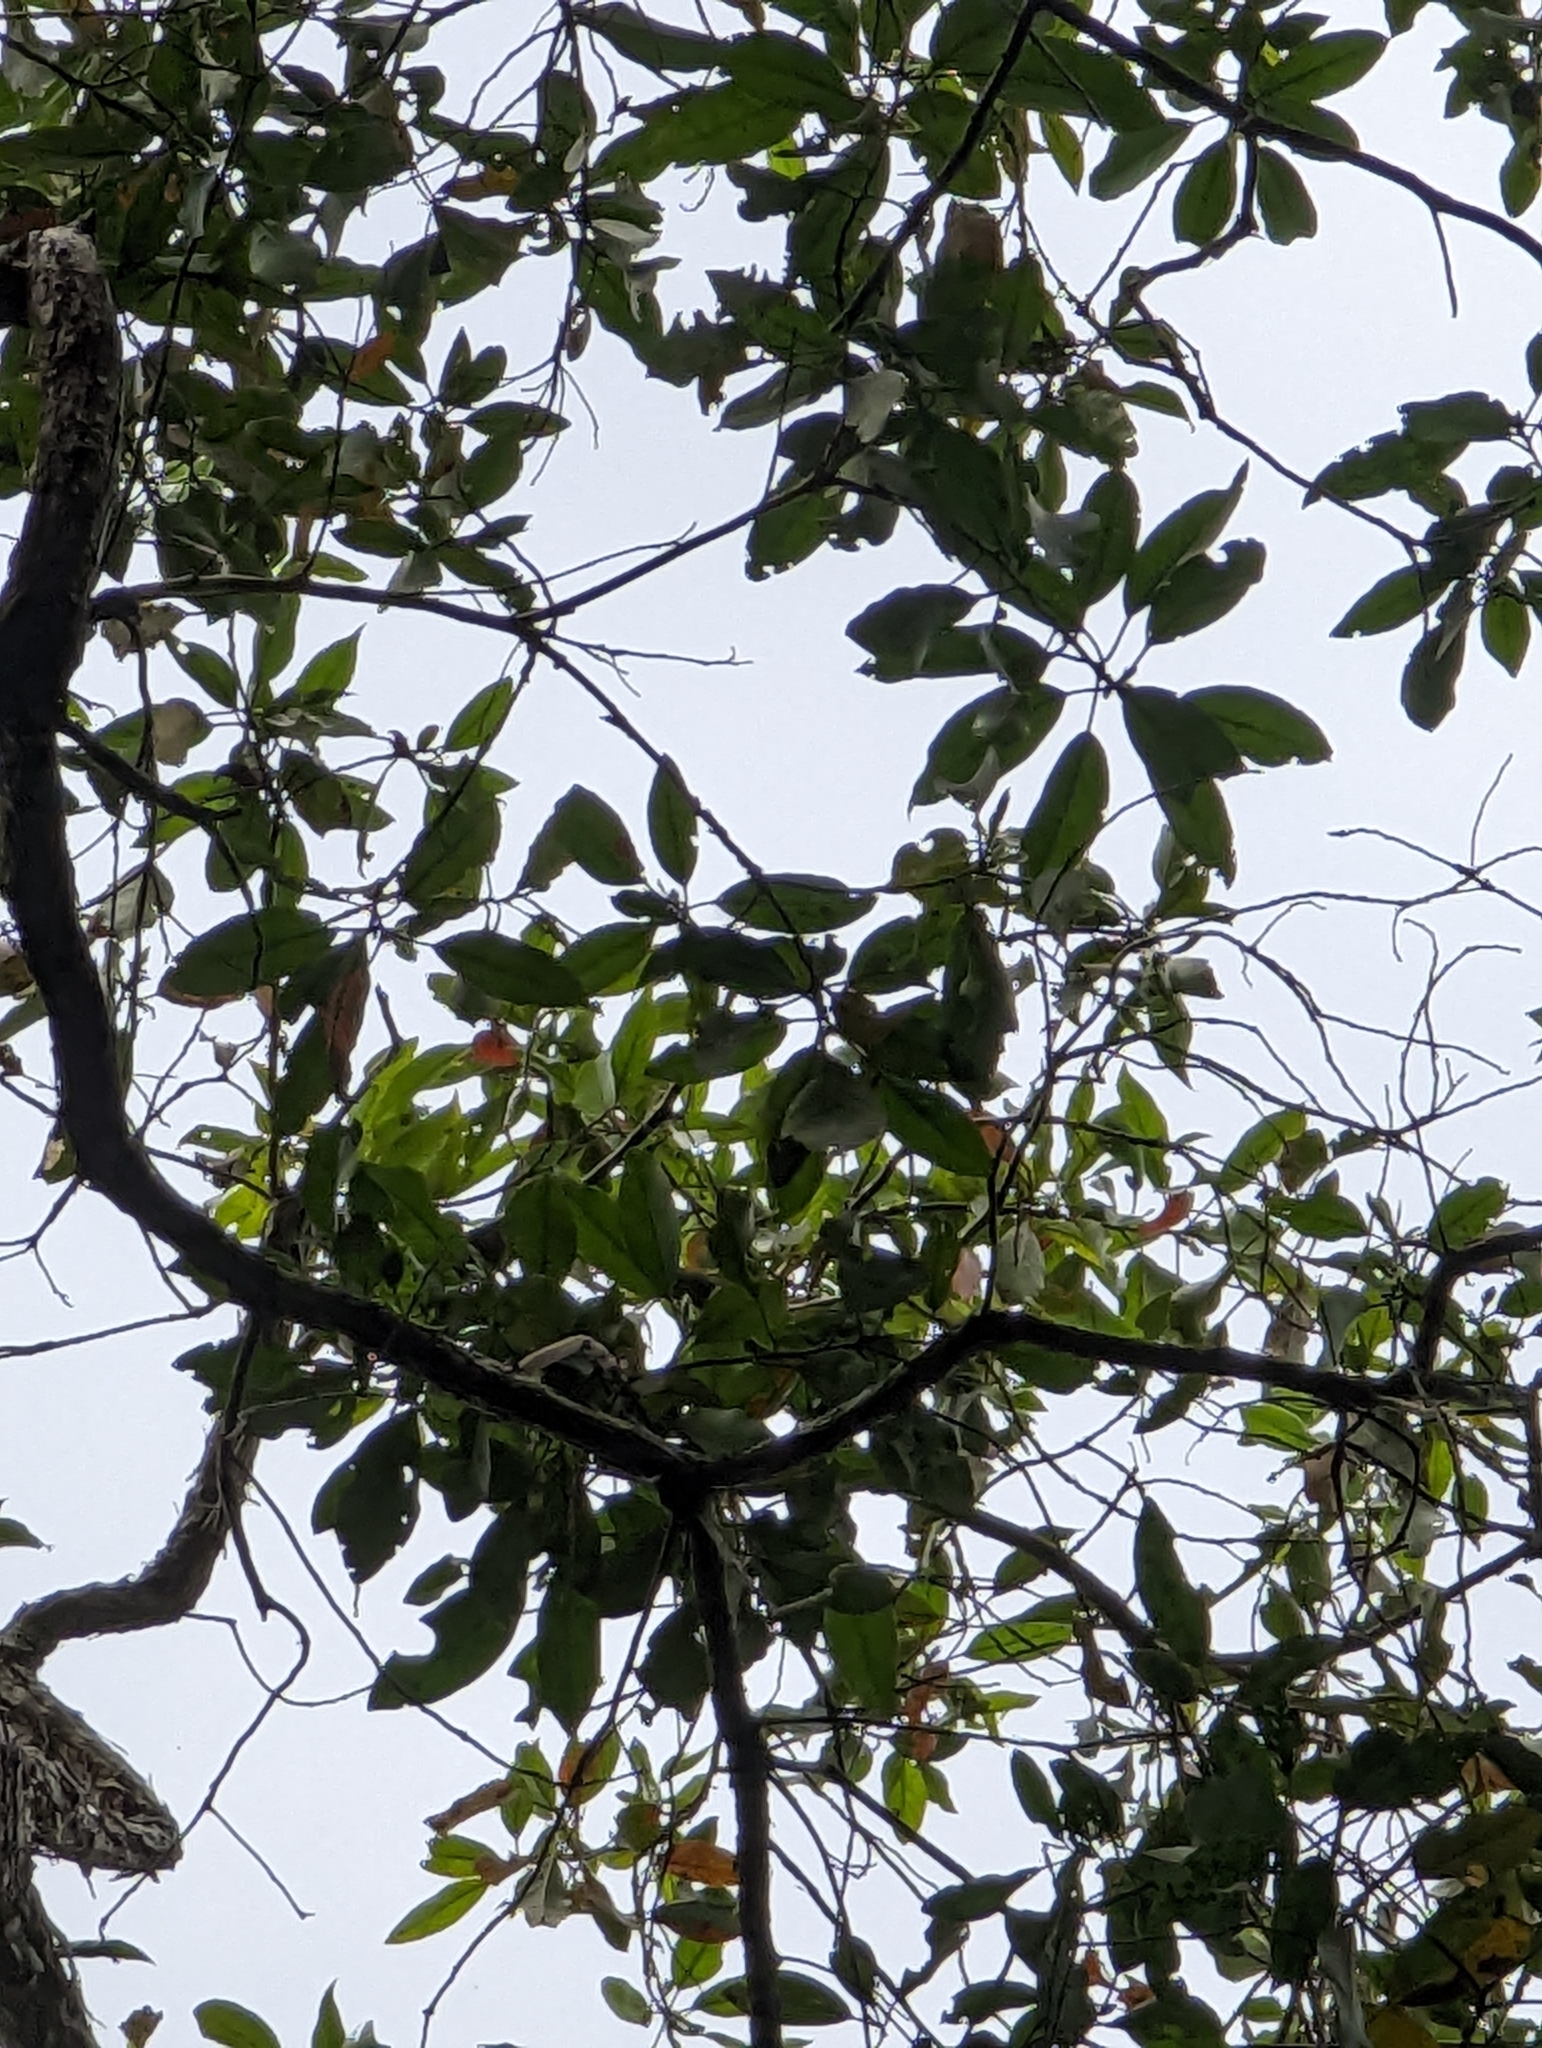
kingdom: Plantae
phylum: Tracheophyta
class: Magnoliopsida
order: Oxalidales
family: Elaeocarpaceae
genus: Elaeocarpus
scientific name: Elaeocarpus eumundi
